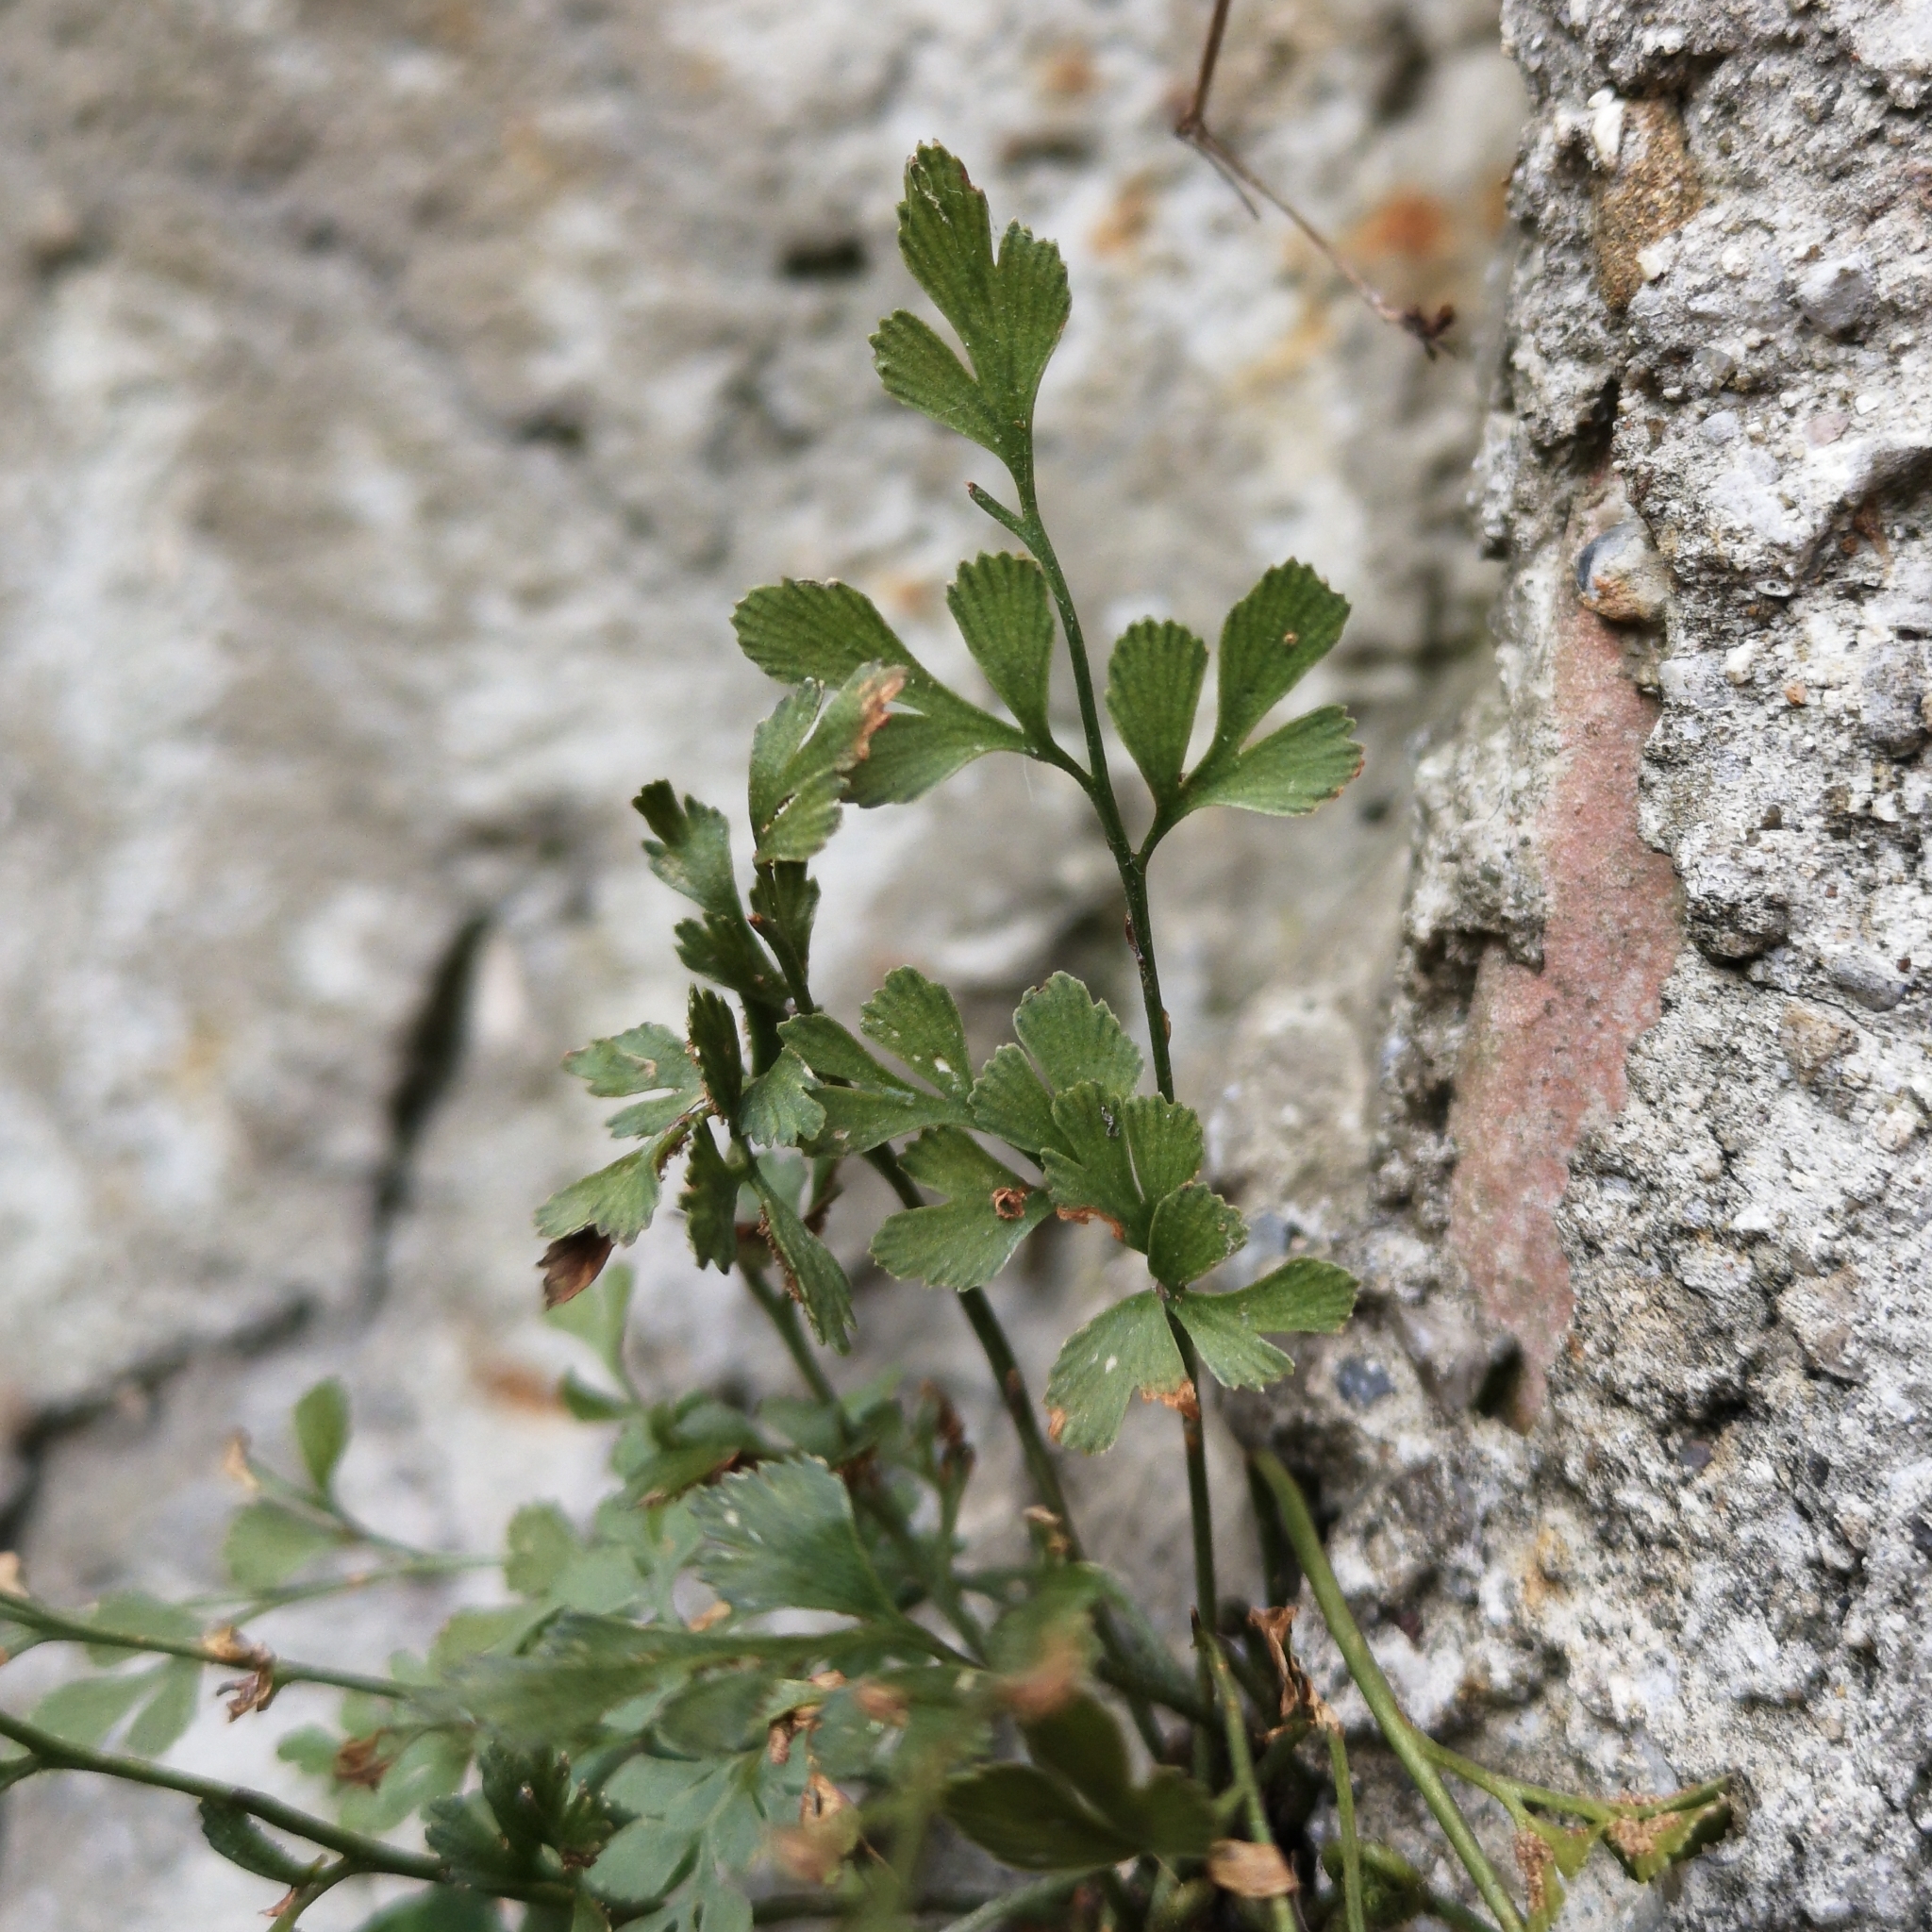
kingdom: Plantae
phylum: Tracheophyta
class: Polypodiopsida
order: Polypodiales
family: Aspleniaceae
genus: Asplenium
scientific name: Asplenium ruta-muraria
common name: Wall-rue
